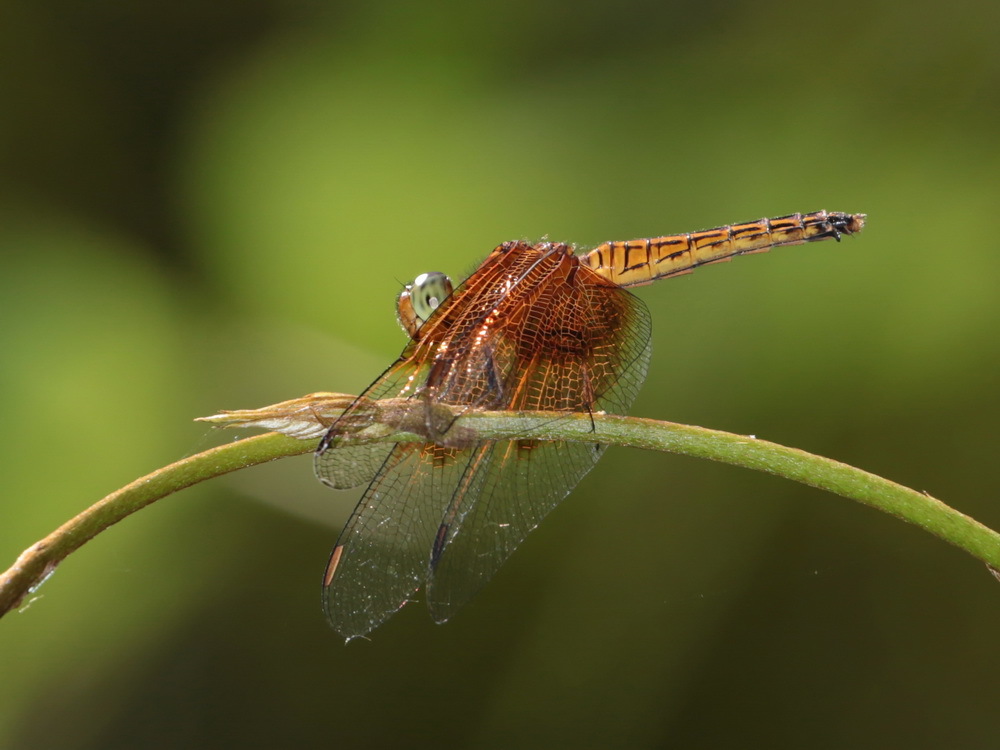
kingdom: Animalia
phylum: Arthropoda
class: Insecta
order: Odonata
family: Libellulidae
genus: Neurothemis
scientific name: Neurothemis ramburii
